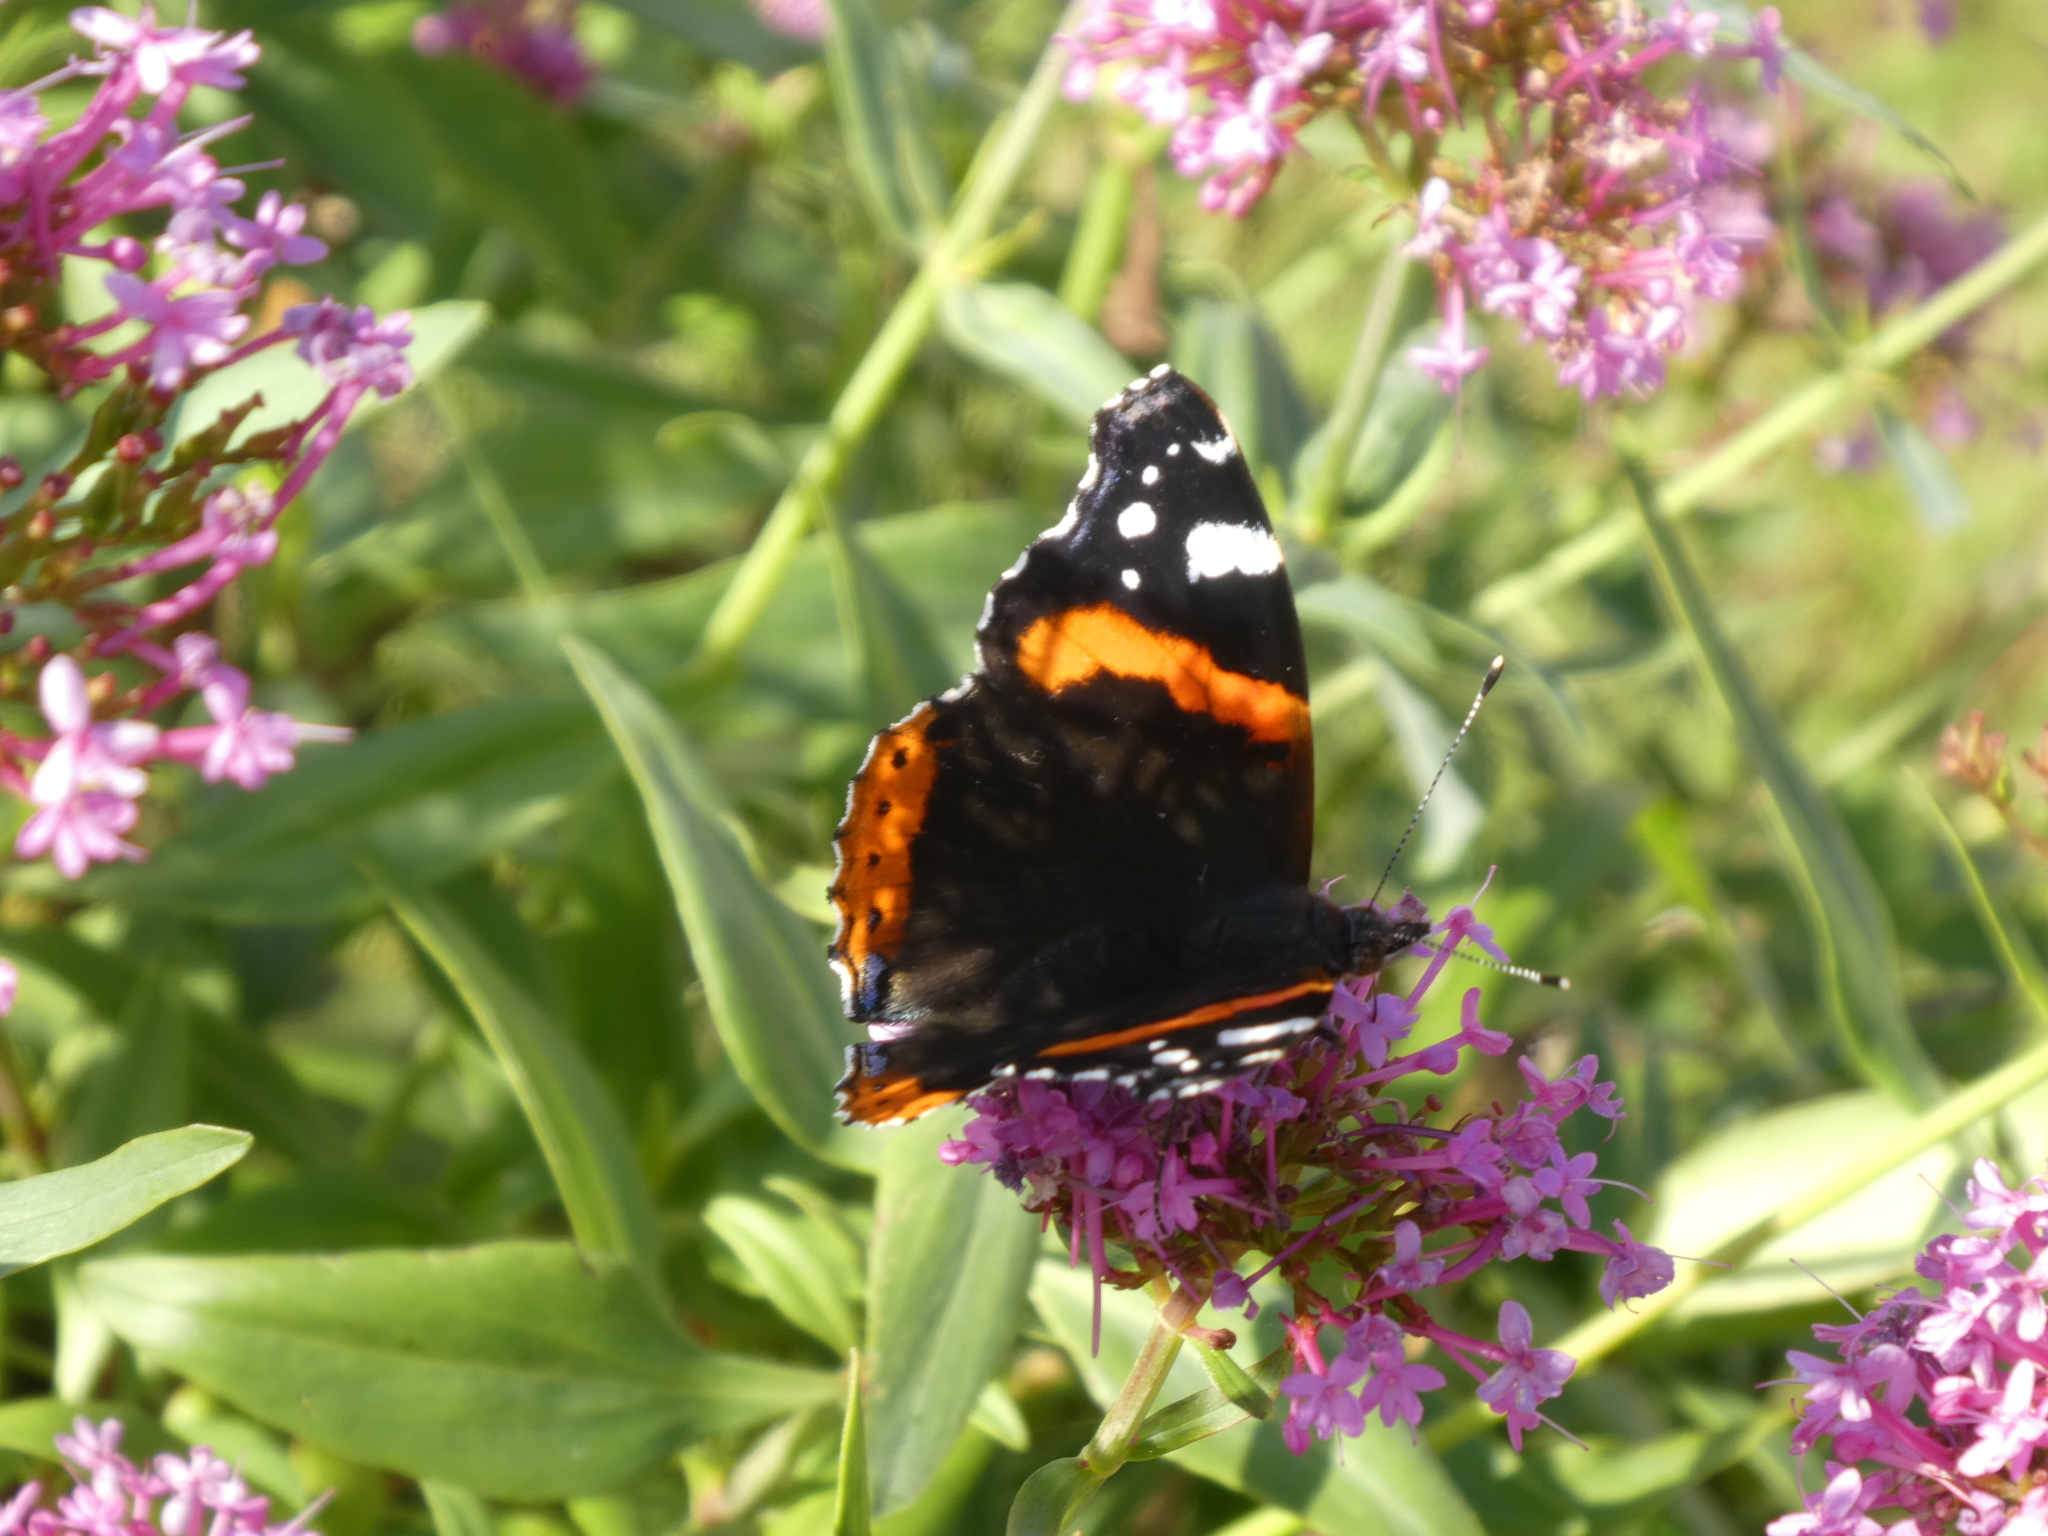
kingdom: Animalia
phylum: Arthropoda
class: Insecta
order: Lepidoptera
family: Nymphalidae
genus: Vanessa
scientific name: Vanessa atalanta
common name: Red admiral
